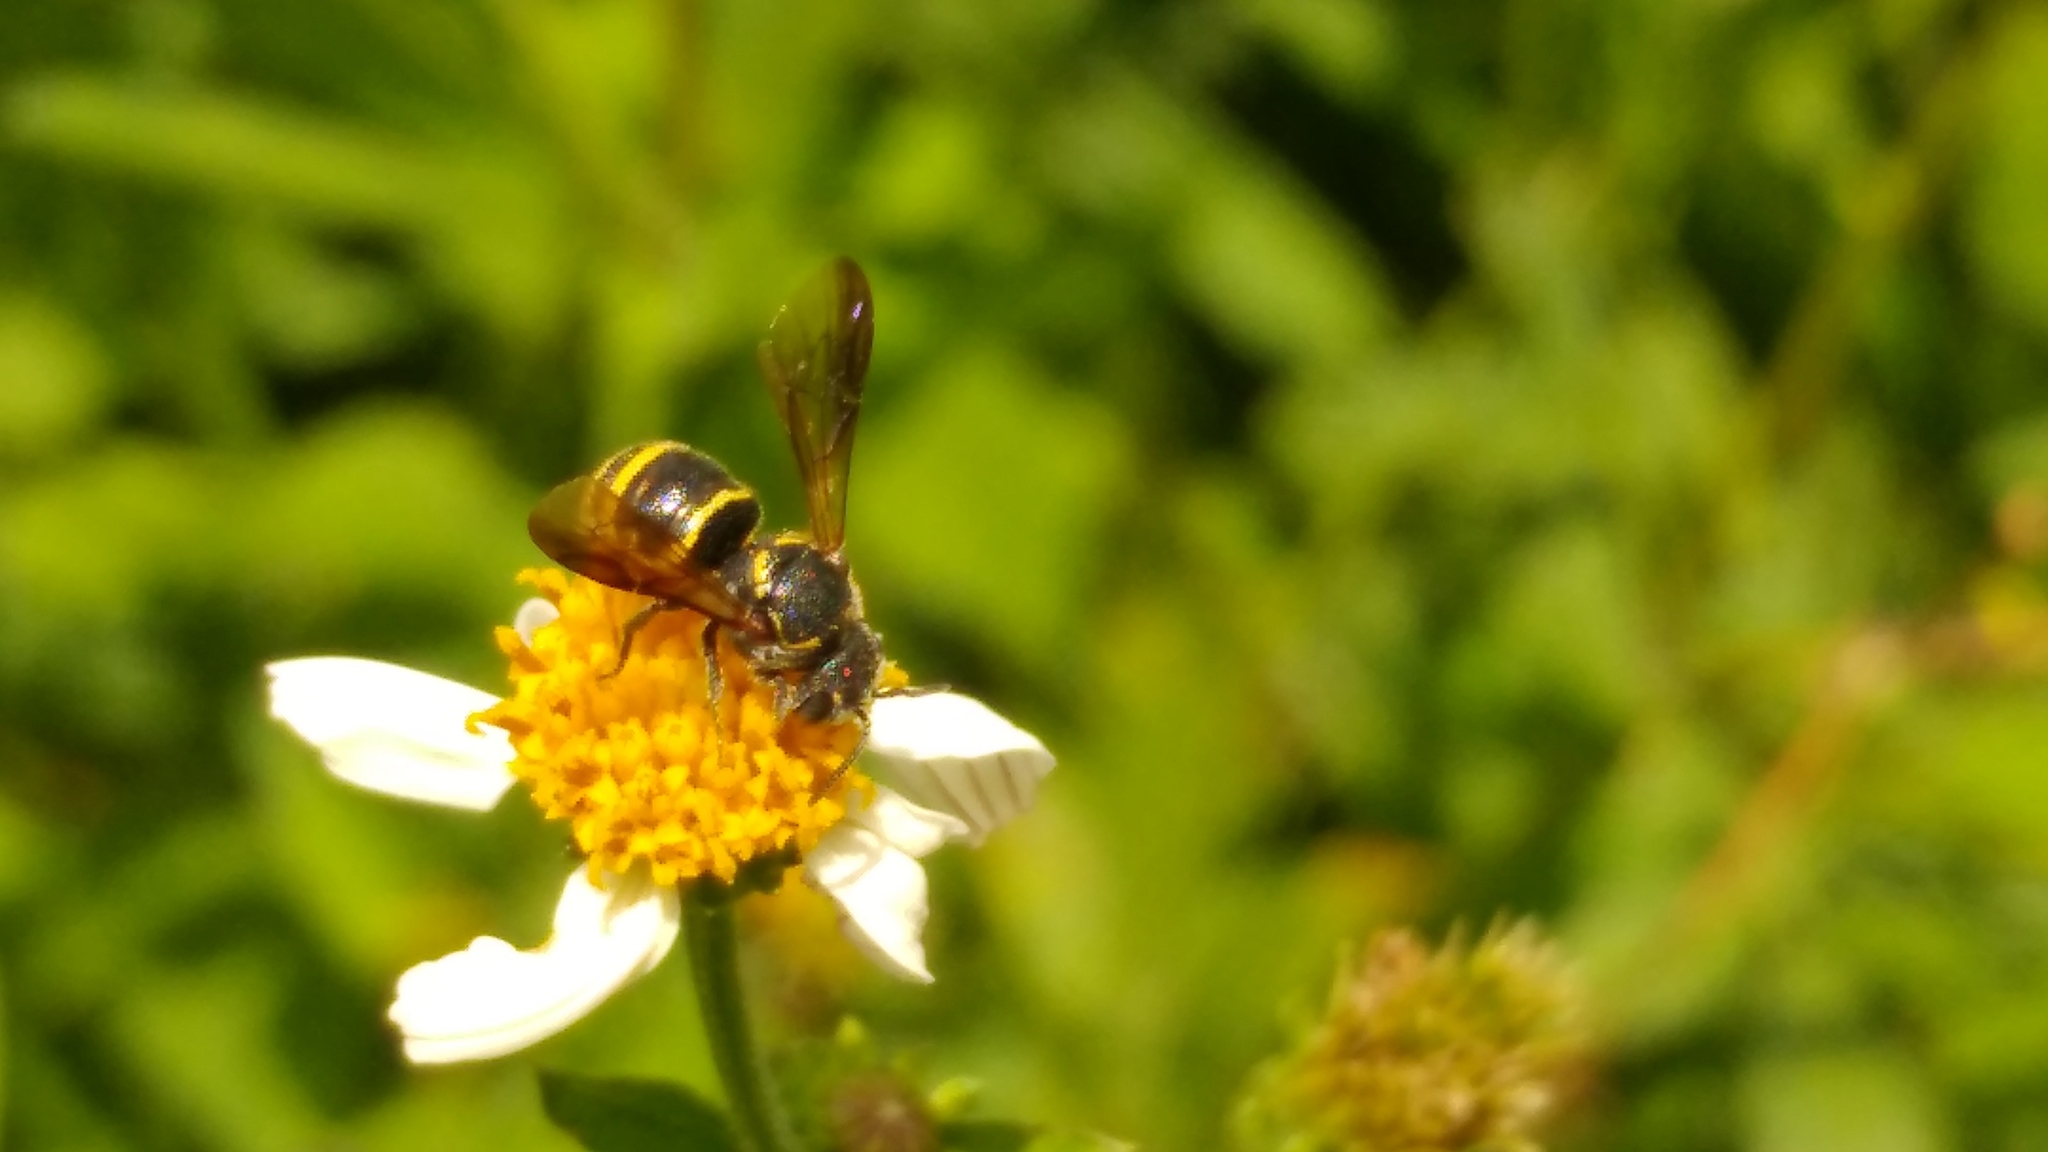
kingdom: Animalia
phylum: Arthropoda
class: Insecta
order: Hymenoptera
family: Megachilidae
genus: Stelis
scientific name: Stelis costalis
